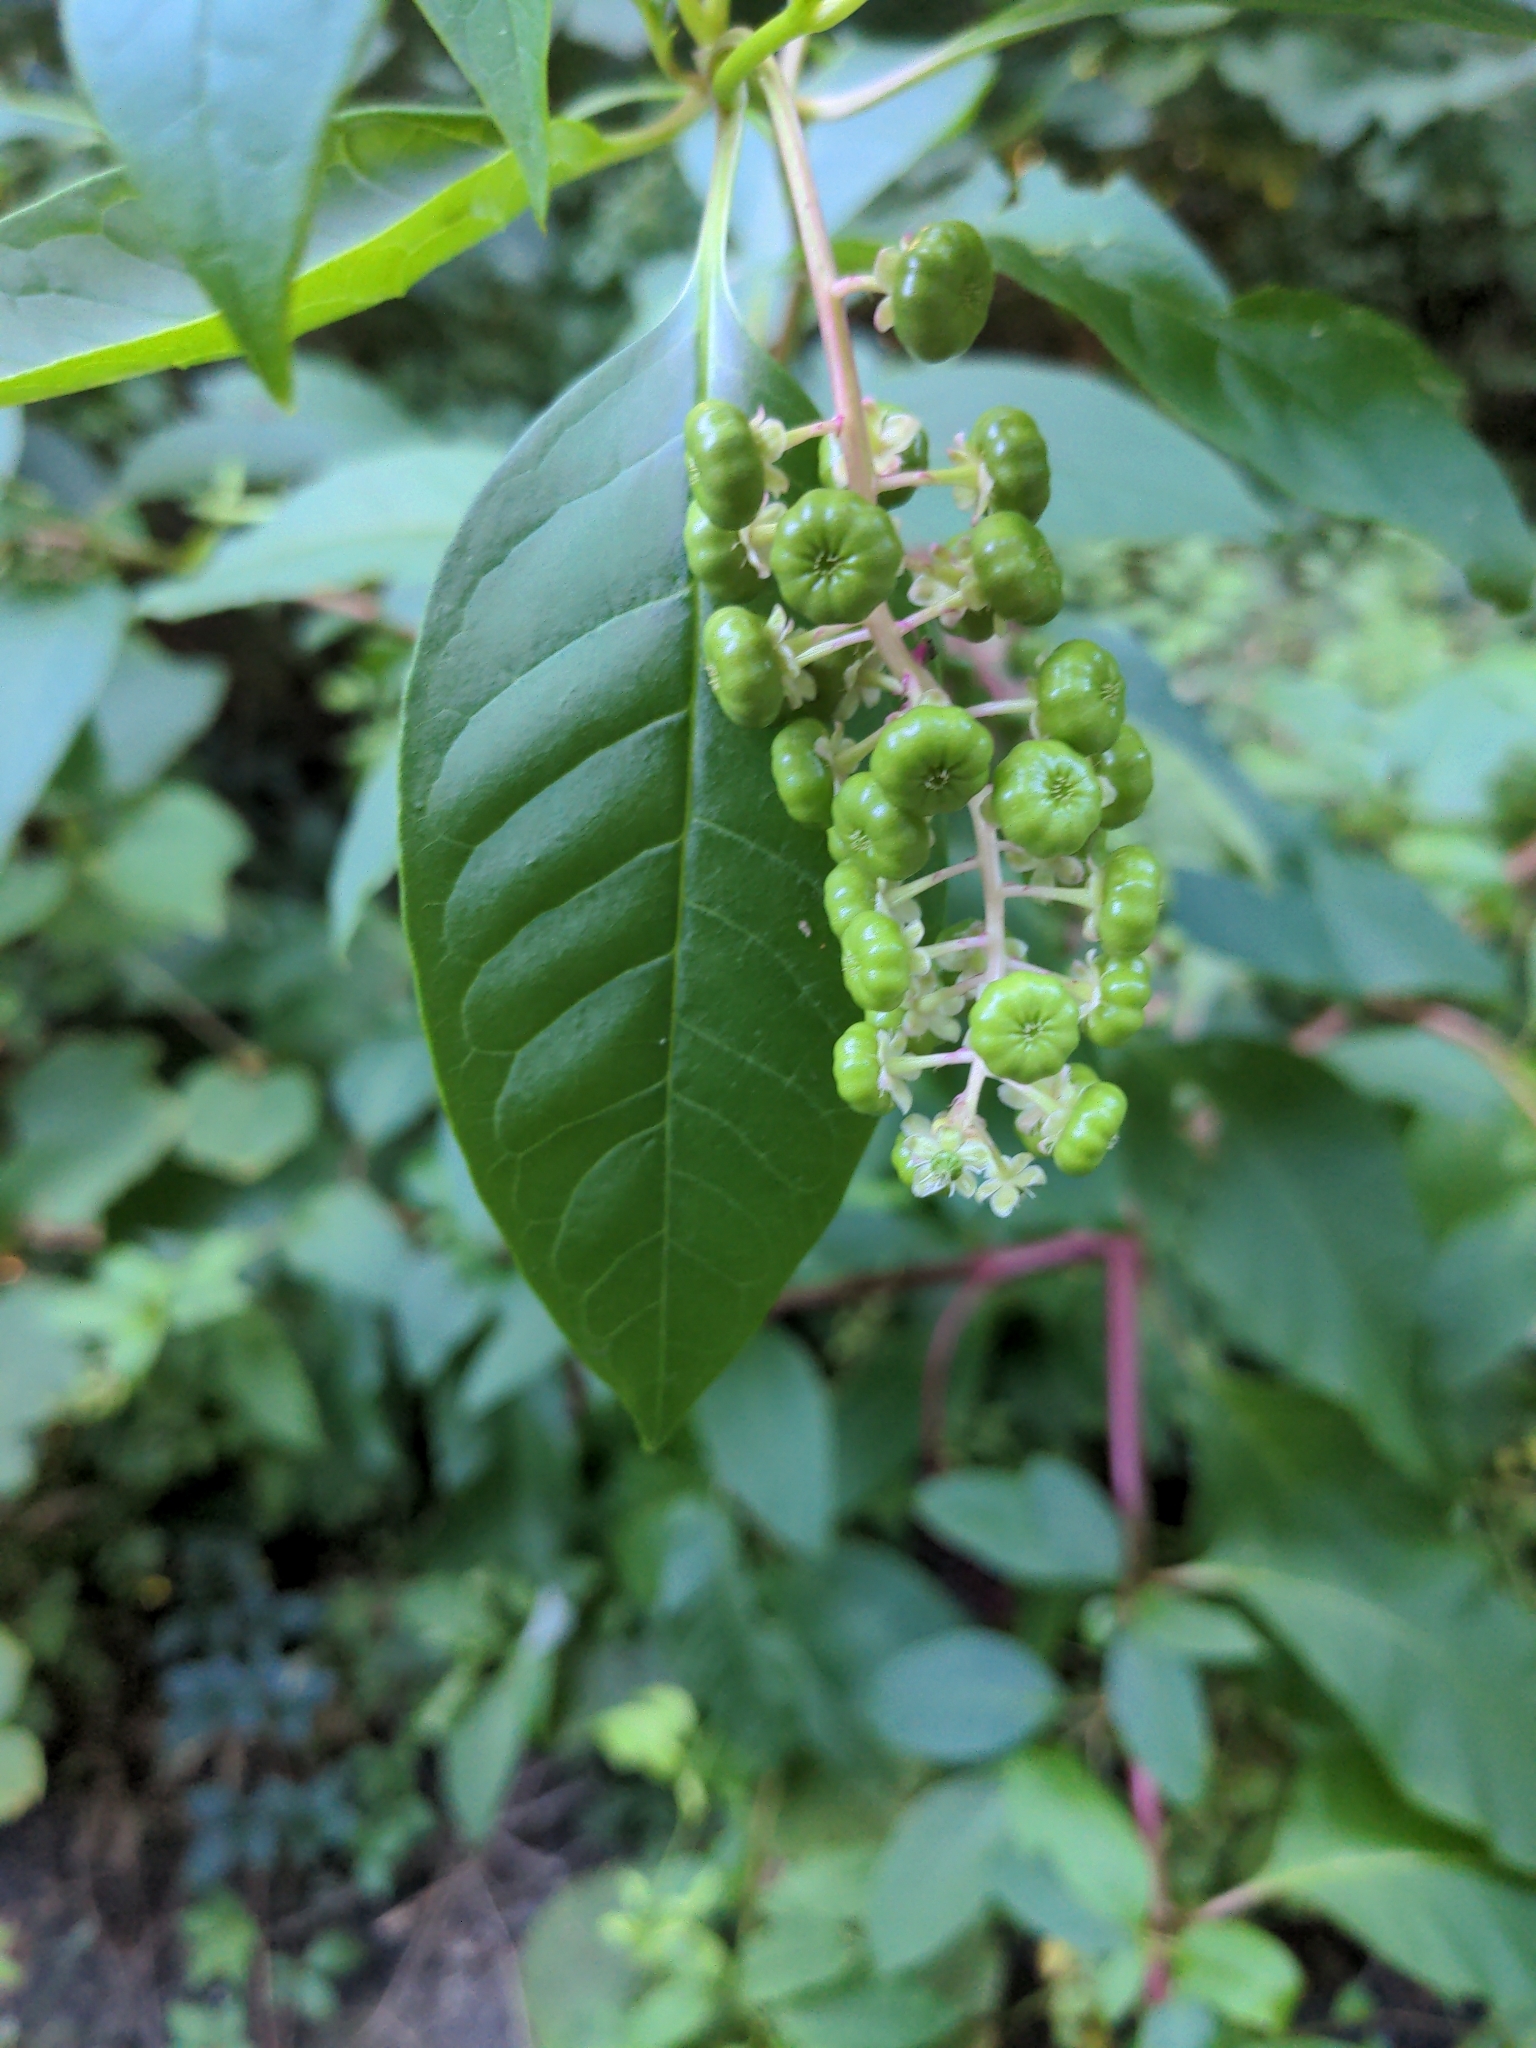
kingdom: Plantae
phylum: Tracheophyta
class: Magnoliopsida
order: Caryophyllales
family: Phytolaccaceae
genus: Phytolacca
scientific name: Phytolacca americana
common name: American pokeweed
